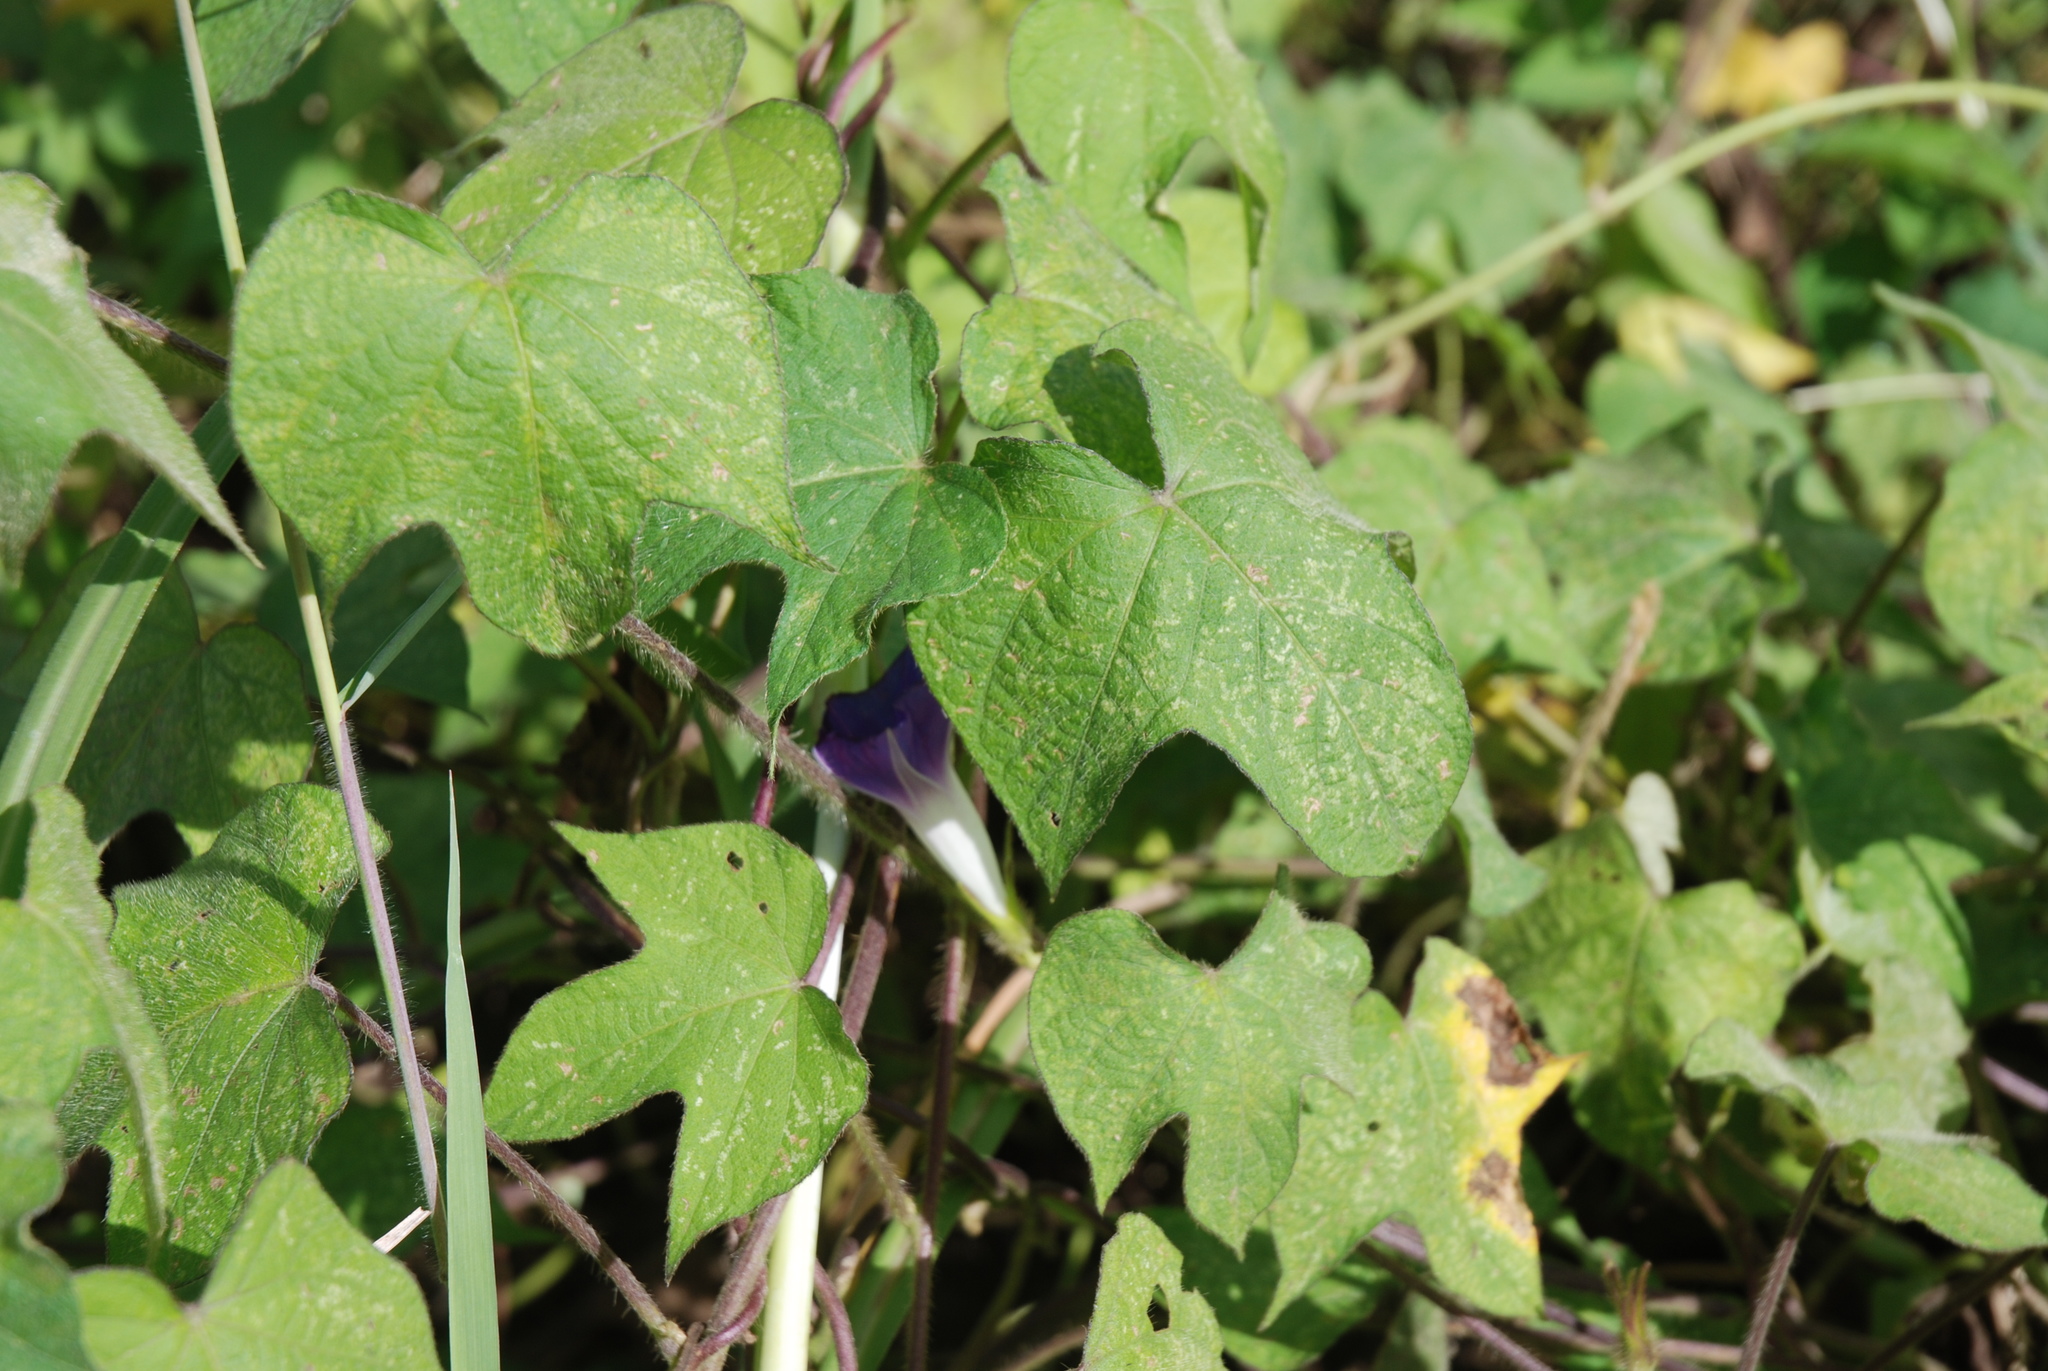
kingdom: Plantae
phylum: Tracheophyta
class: Magnoliopsida
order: Solanales
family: Convolvulaceae
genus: Ipomoea
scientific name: Ipomoea nil
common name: Japanese morning-glory
